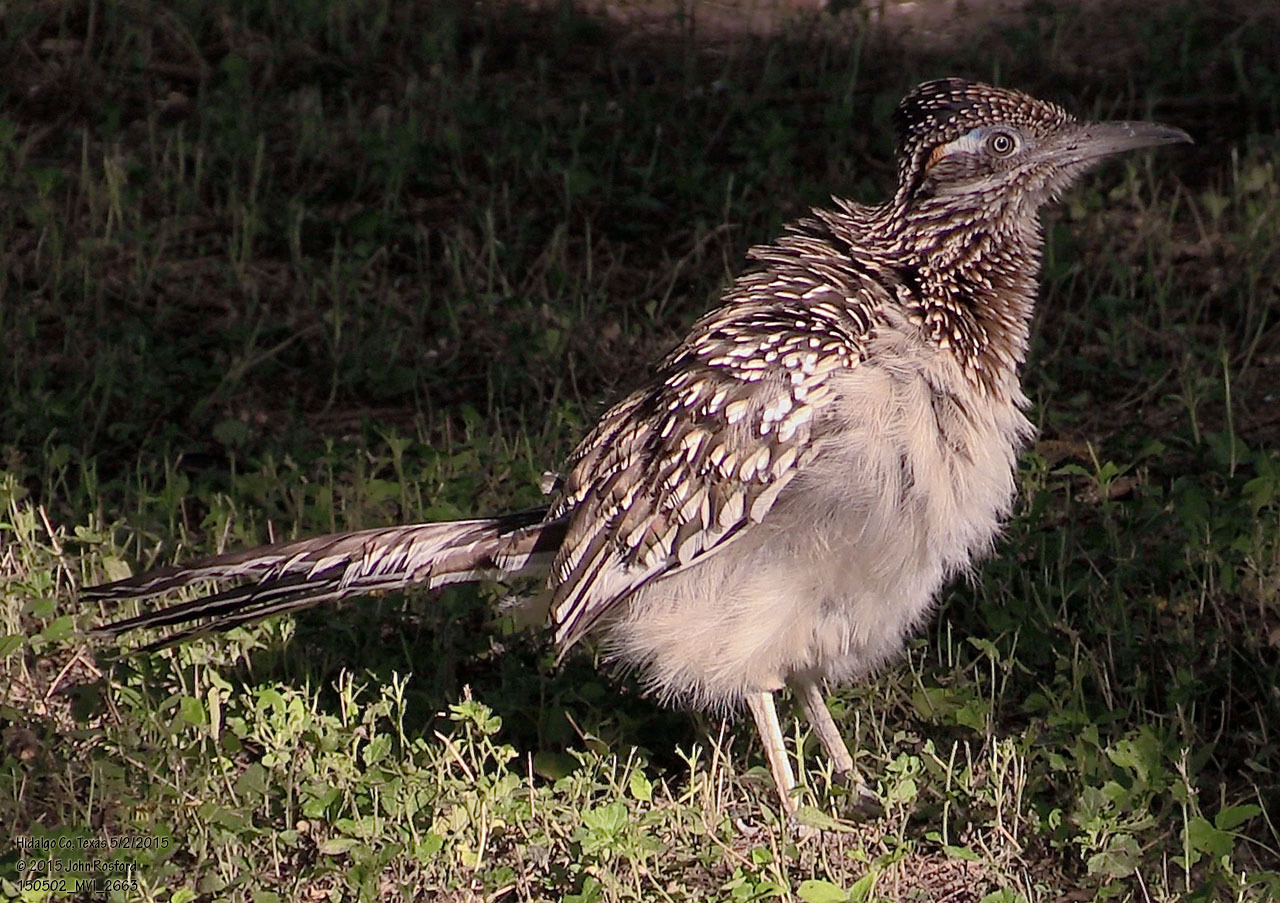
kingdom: Animalia
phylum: Chordata
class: Aves
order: Cuculiformes
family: Cuculidae
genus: Geococcyx
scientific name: Geococcyx californianus
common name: Greater roadrunner
